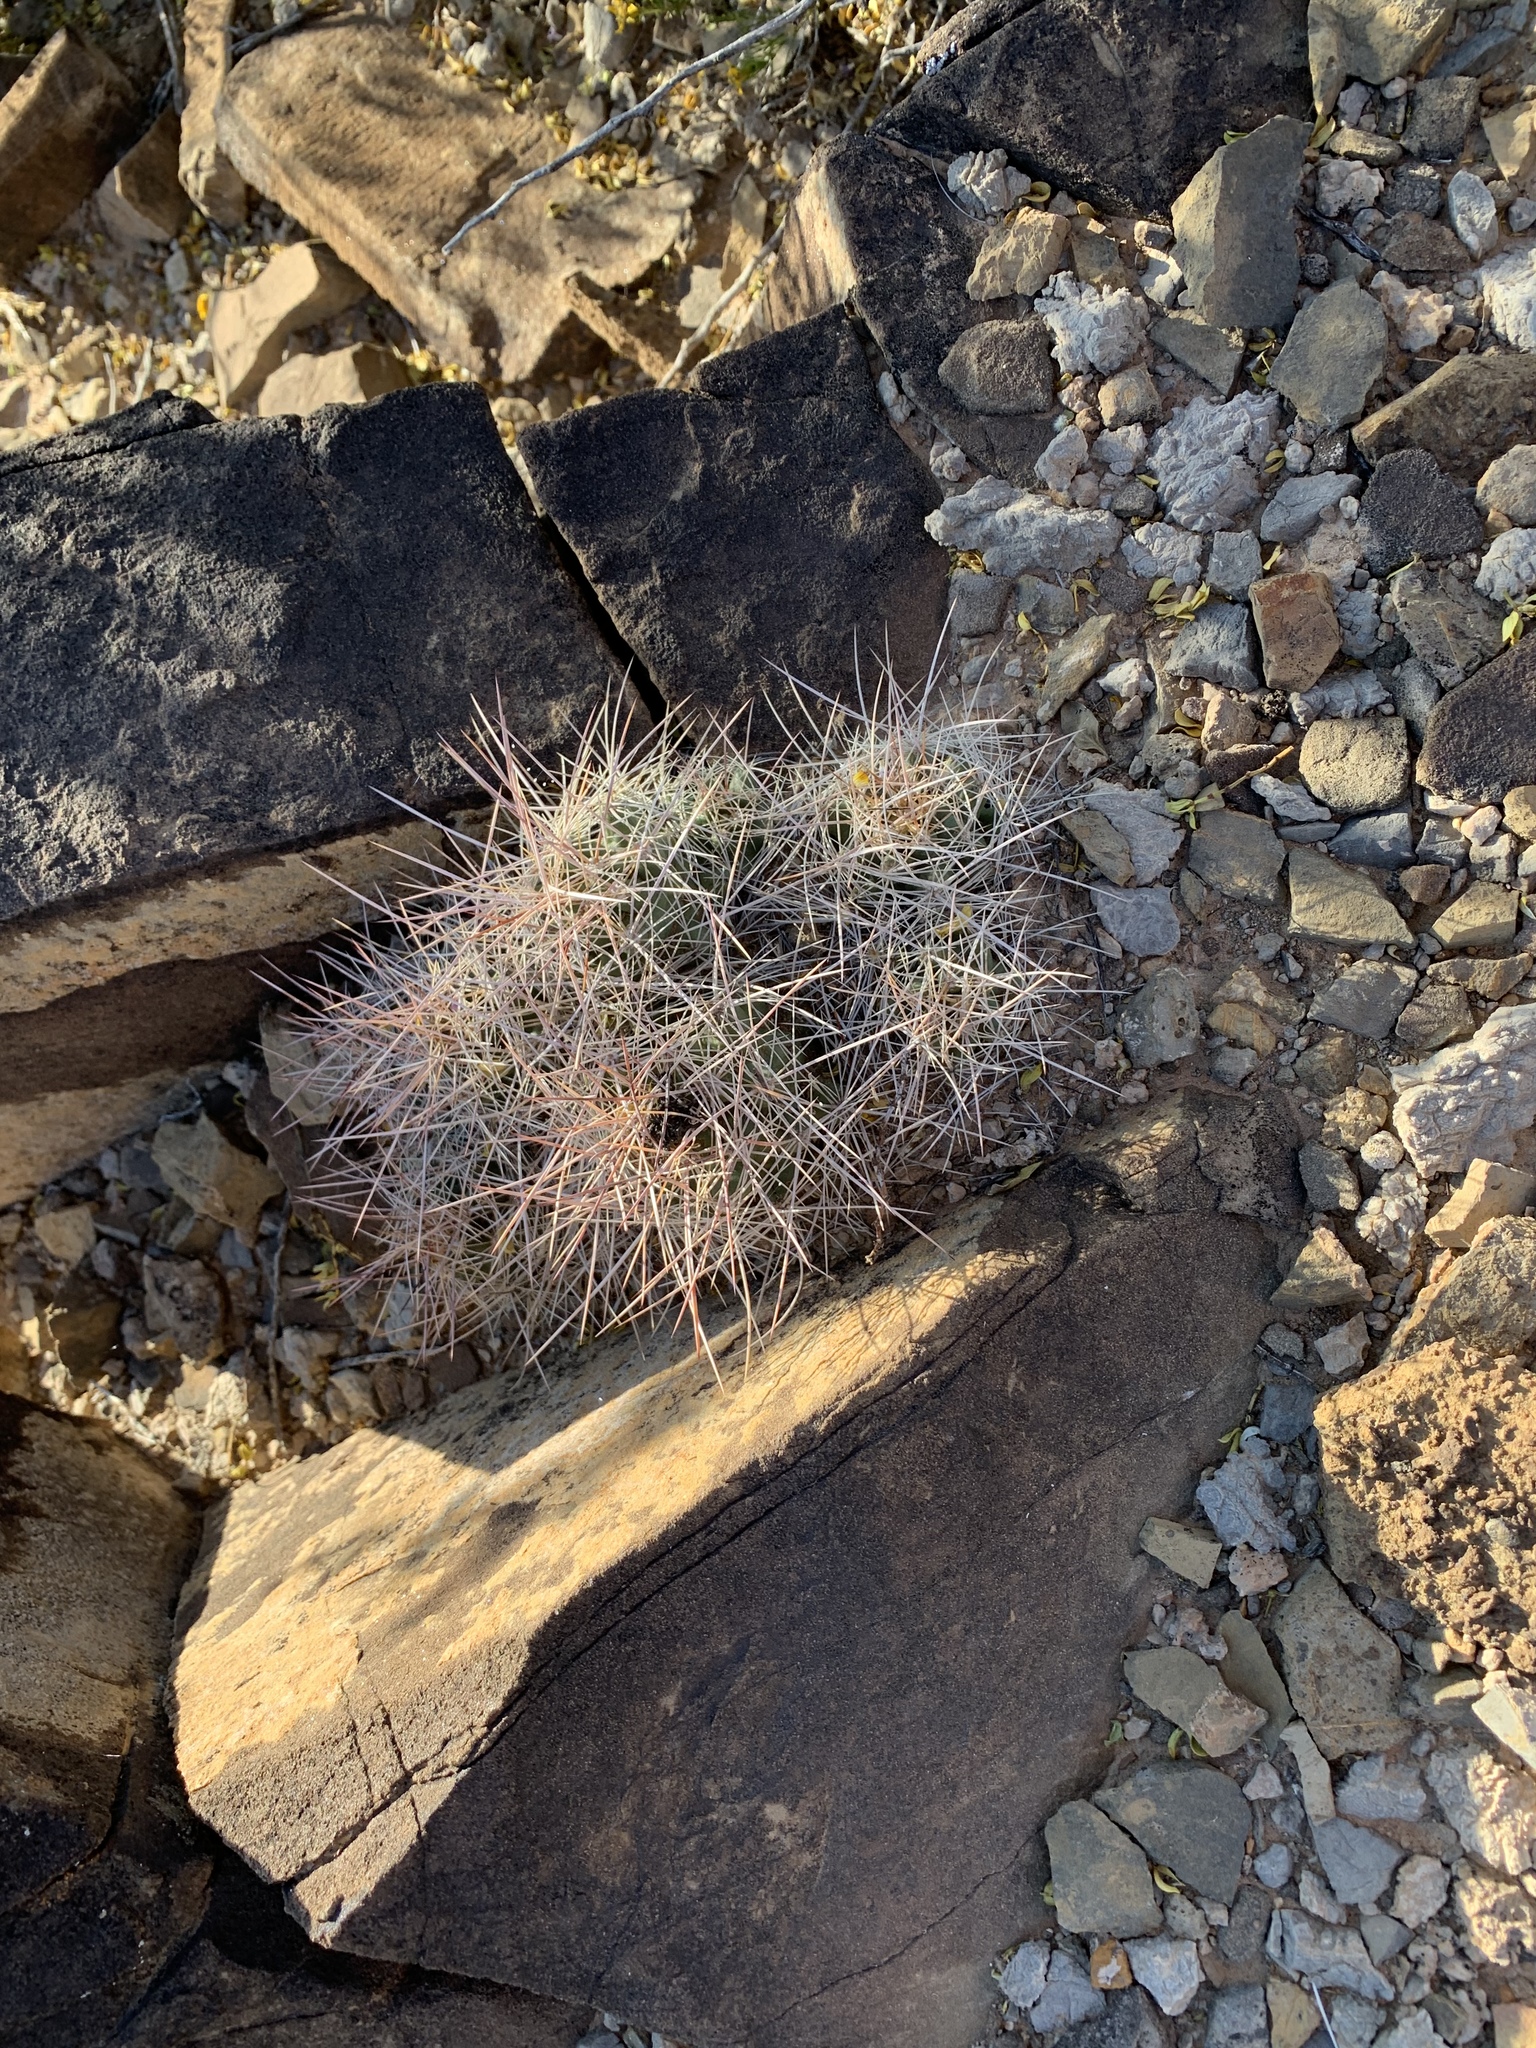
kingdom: Plantae
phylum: Tracheophyta
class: Magnoliopsida
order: Caryophyllales
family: Cactaceae
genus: Coryphantha
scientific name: Coryphantha macromeris
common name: Nipple beehive cactus
